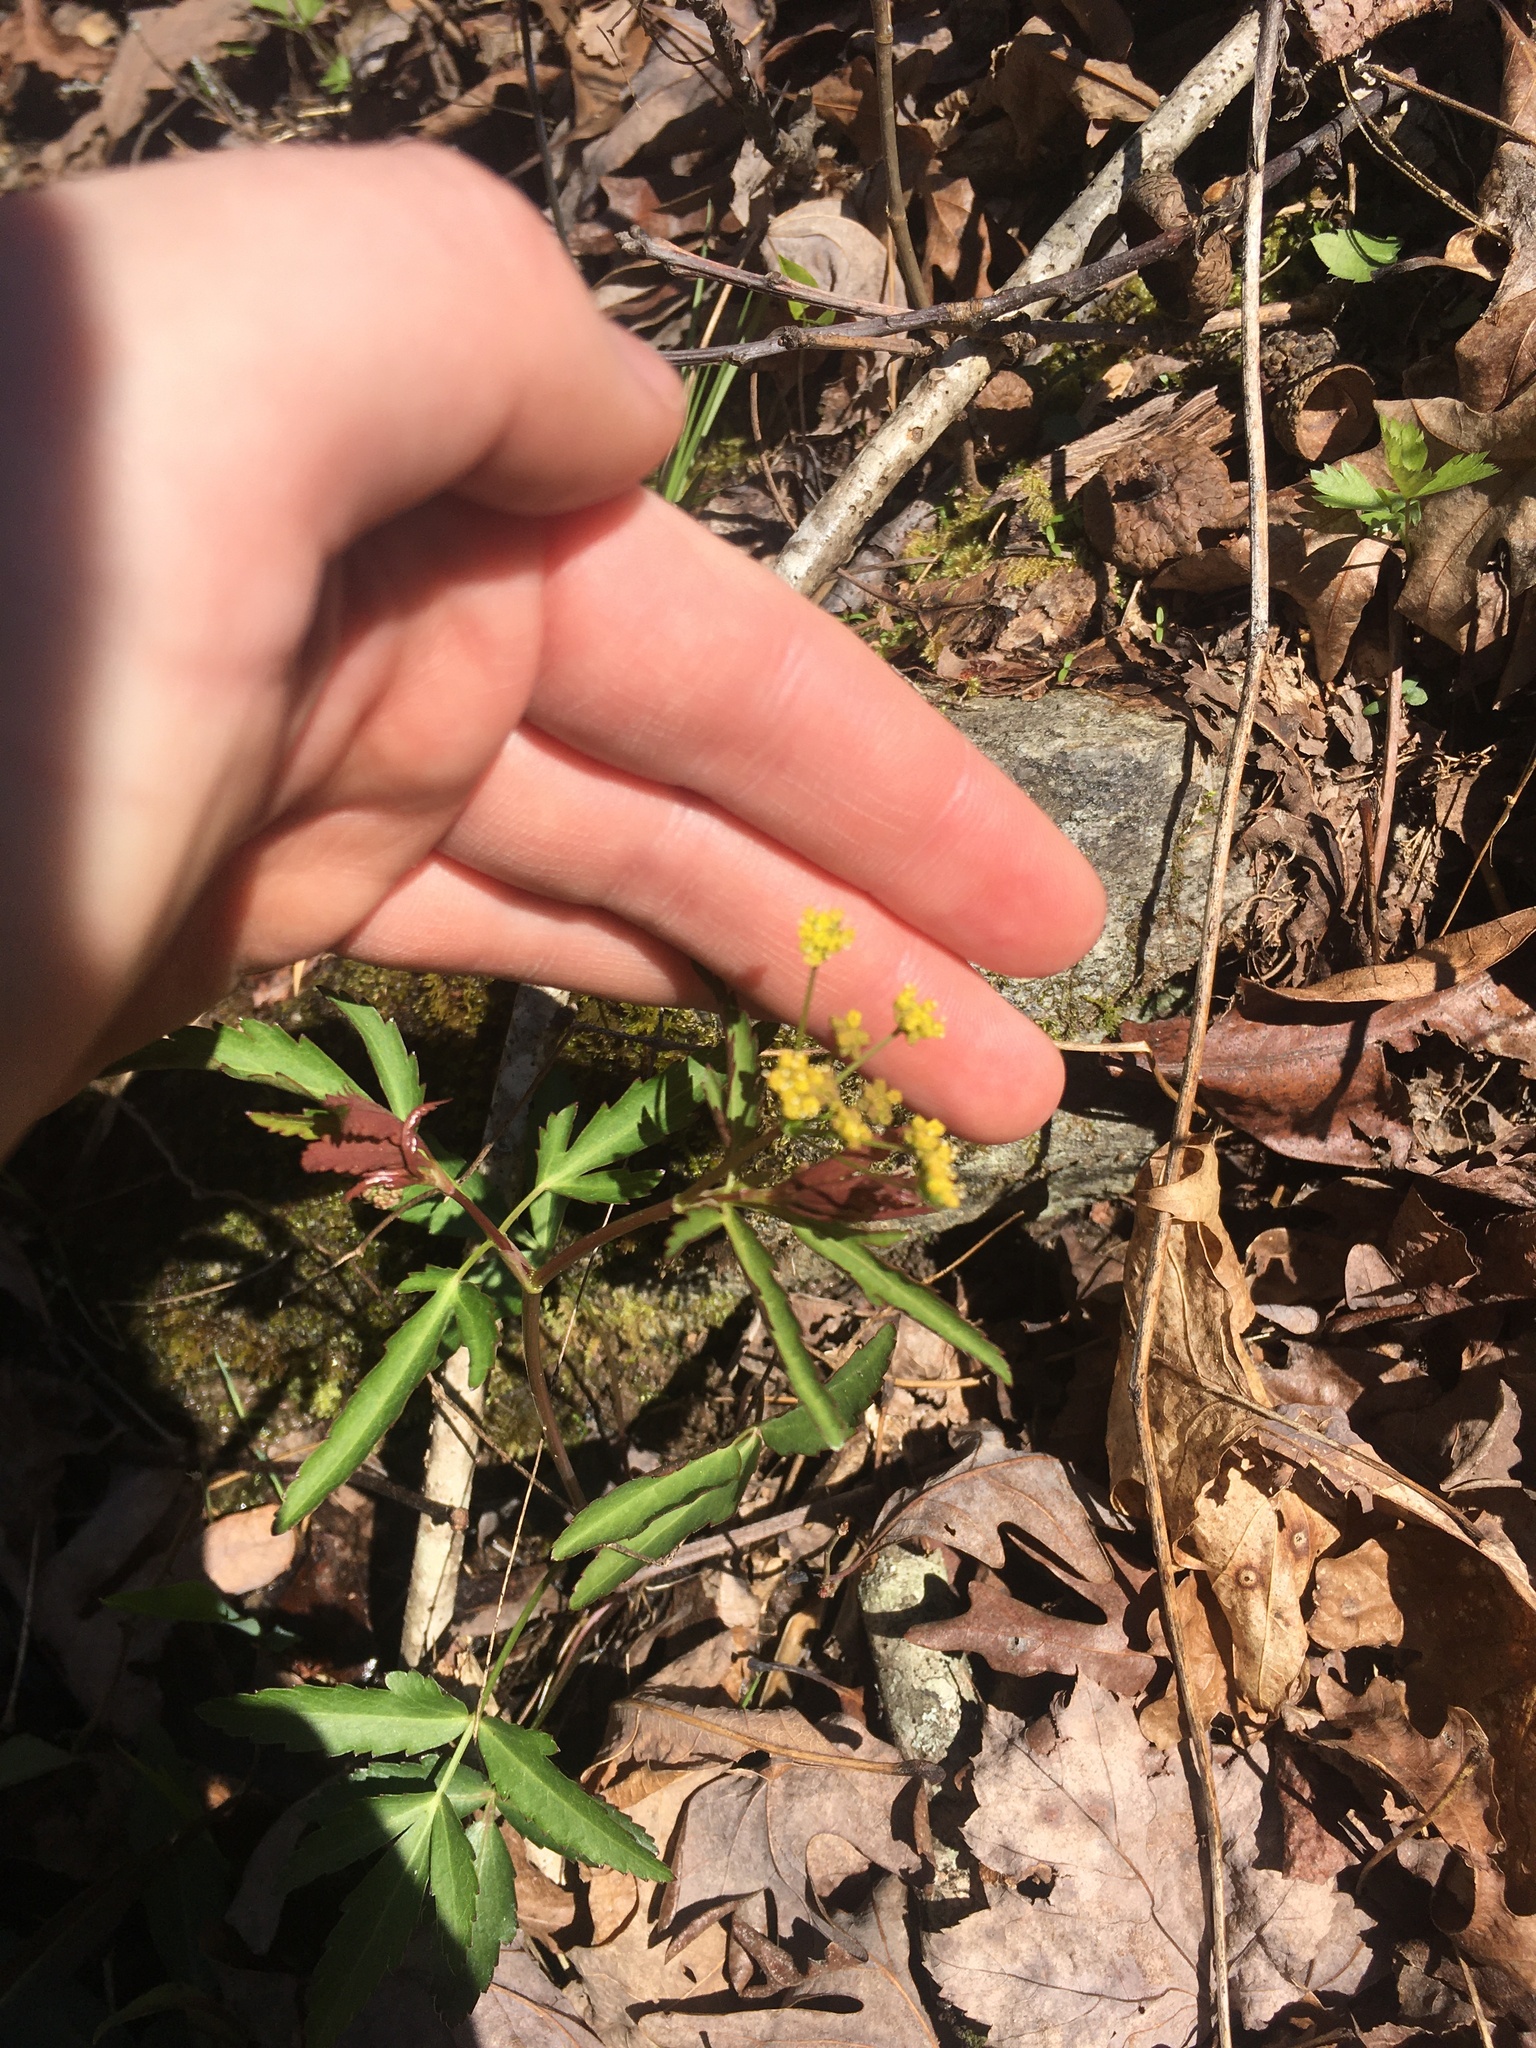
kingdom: Plantae
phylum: Tracheophyta
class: Magnoliopsida
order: Apiales
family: Apiaceae
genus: Zizia
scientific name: Zizia aurea
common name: Golden alexanders
